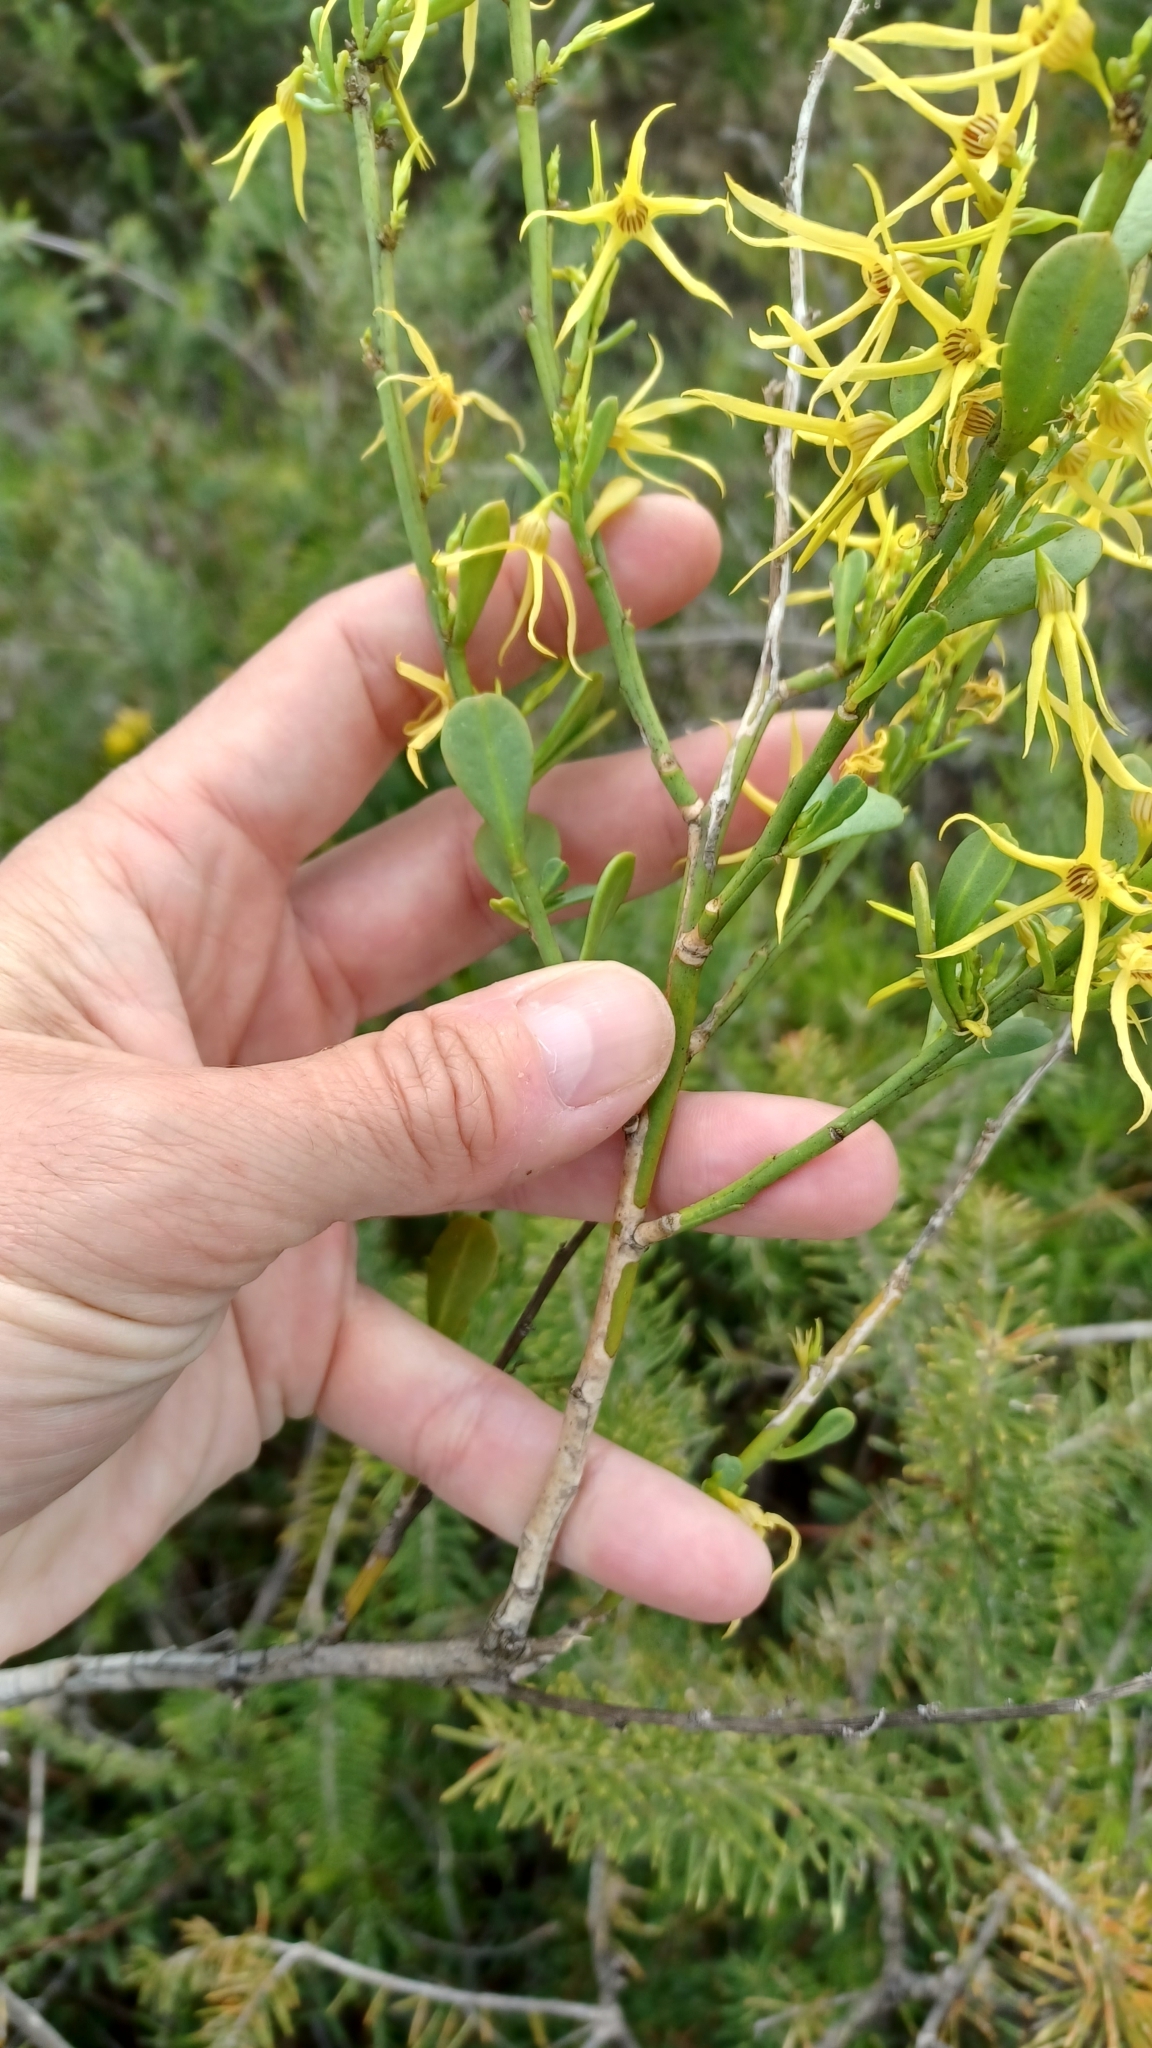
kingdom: Plantae
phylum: Tracheophyta
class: Magnoliopsida
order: Solanales
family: Solanaceae
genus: Anthocercis
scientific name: Anthocercis littorea
